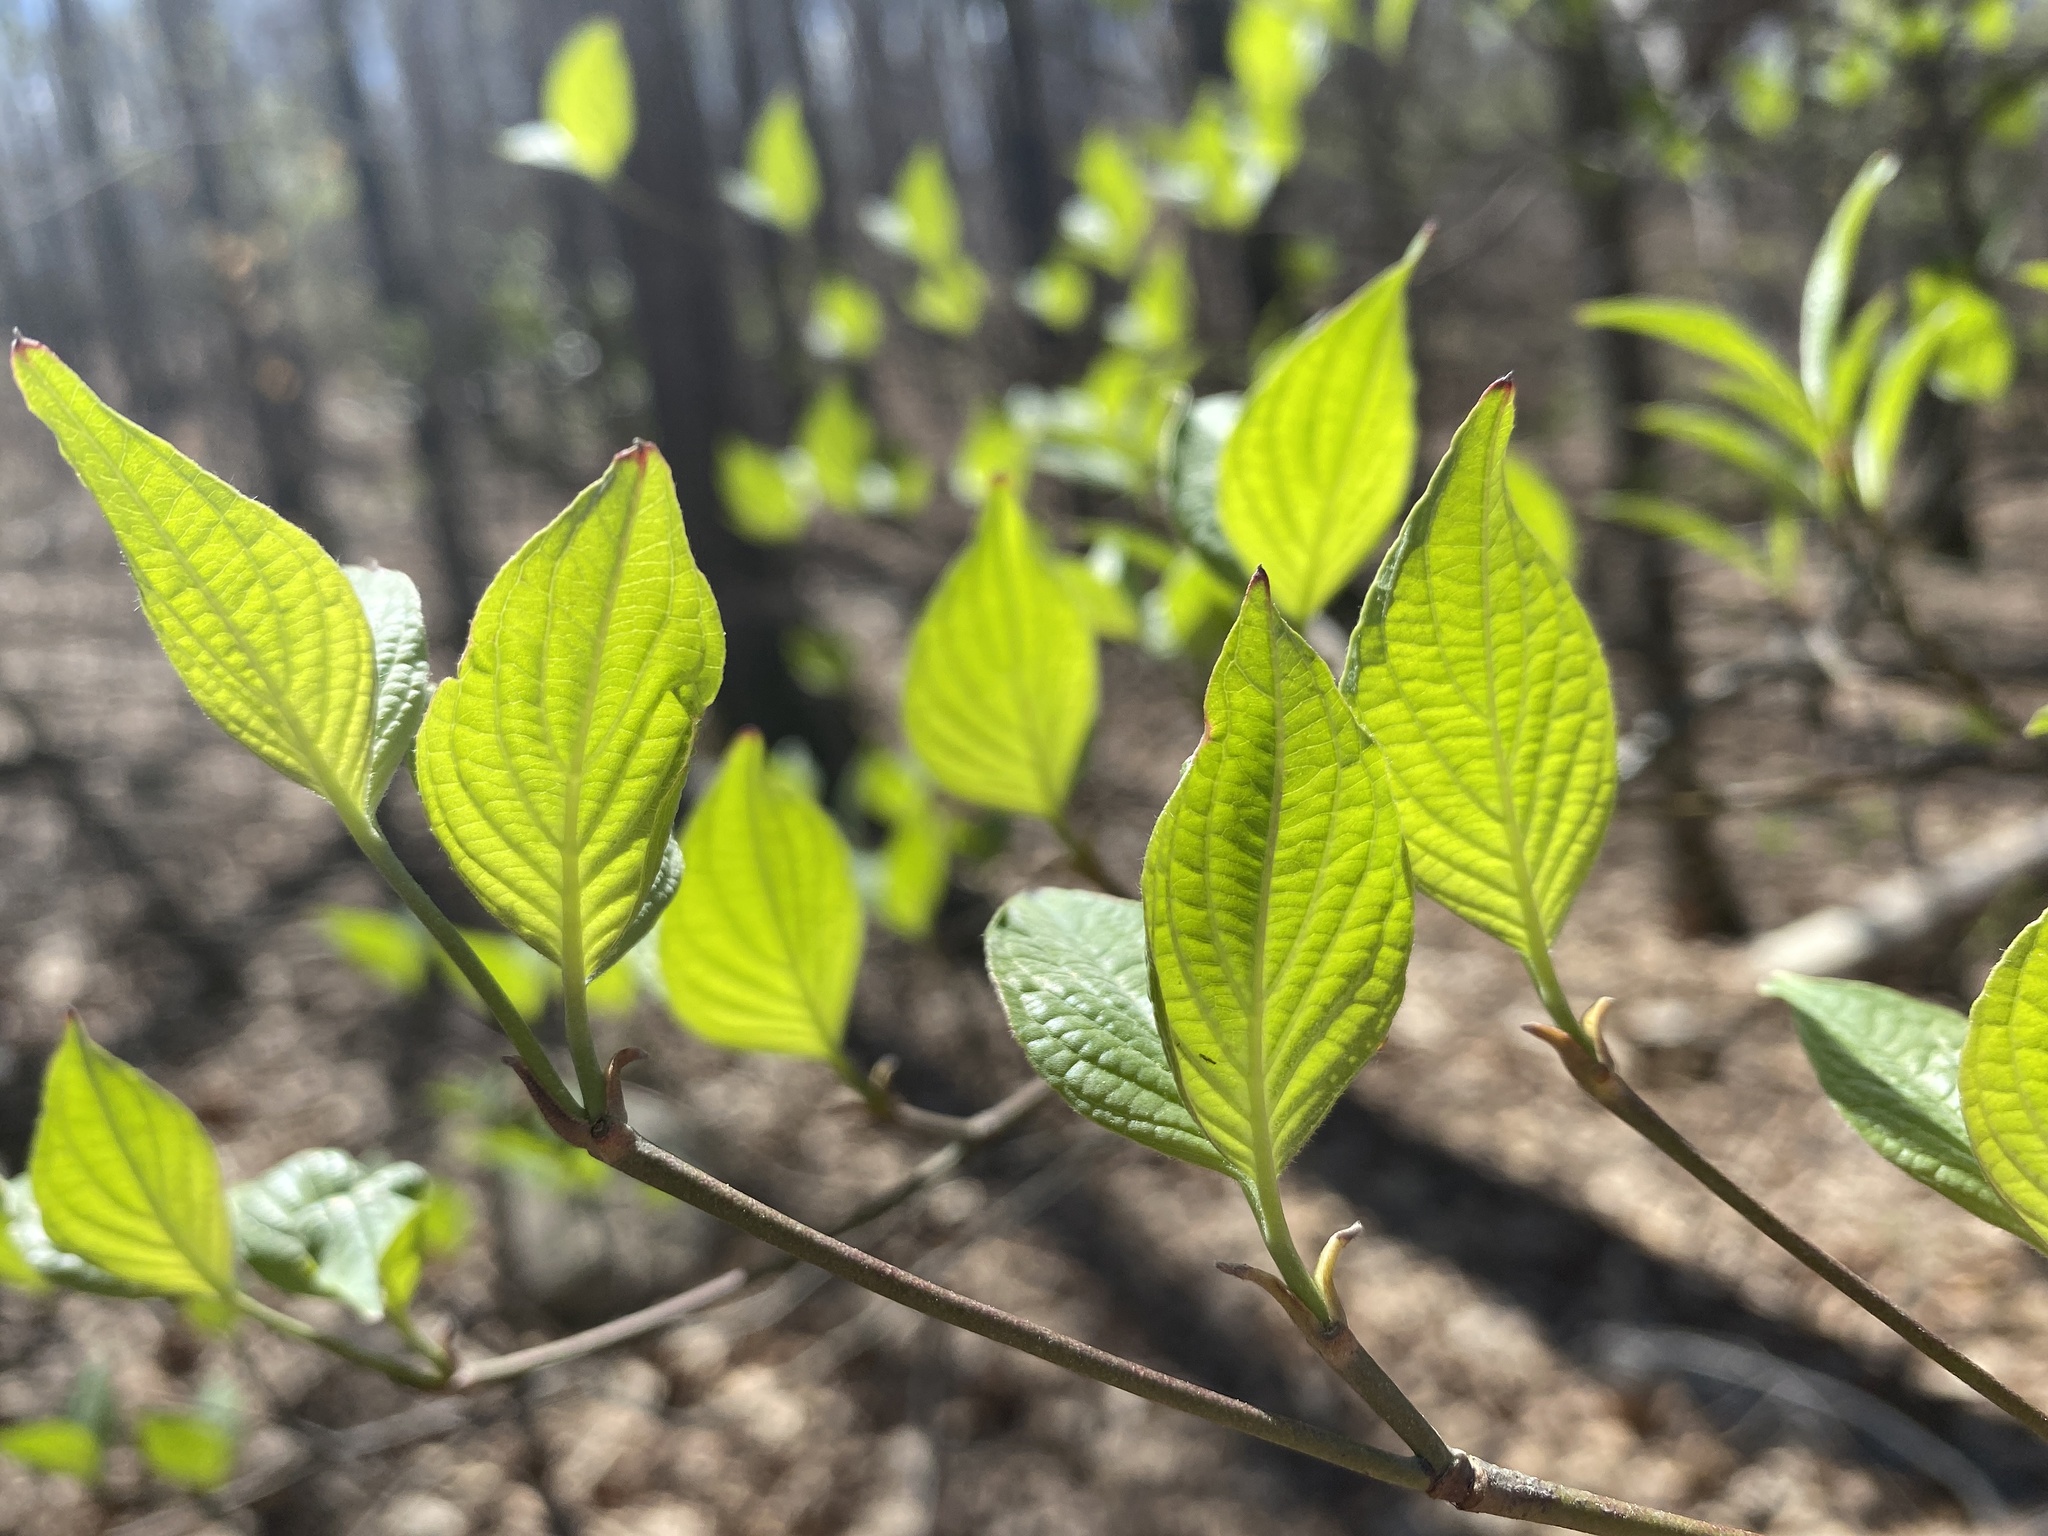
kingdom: Plantae
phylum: Tracheophyta
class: Magnoliopsida
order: Cornales
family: Cornaceae
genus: Cornus
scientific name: Cornus florida
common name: Flowering dogwood
